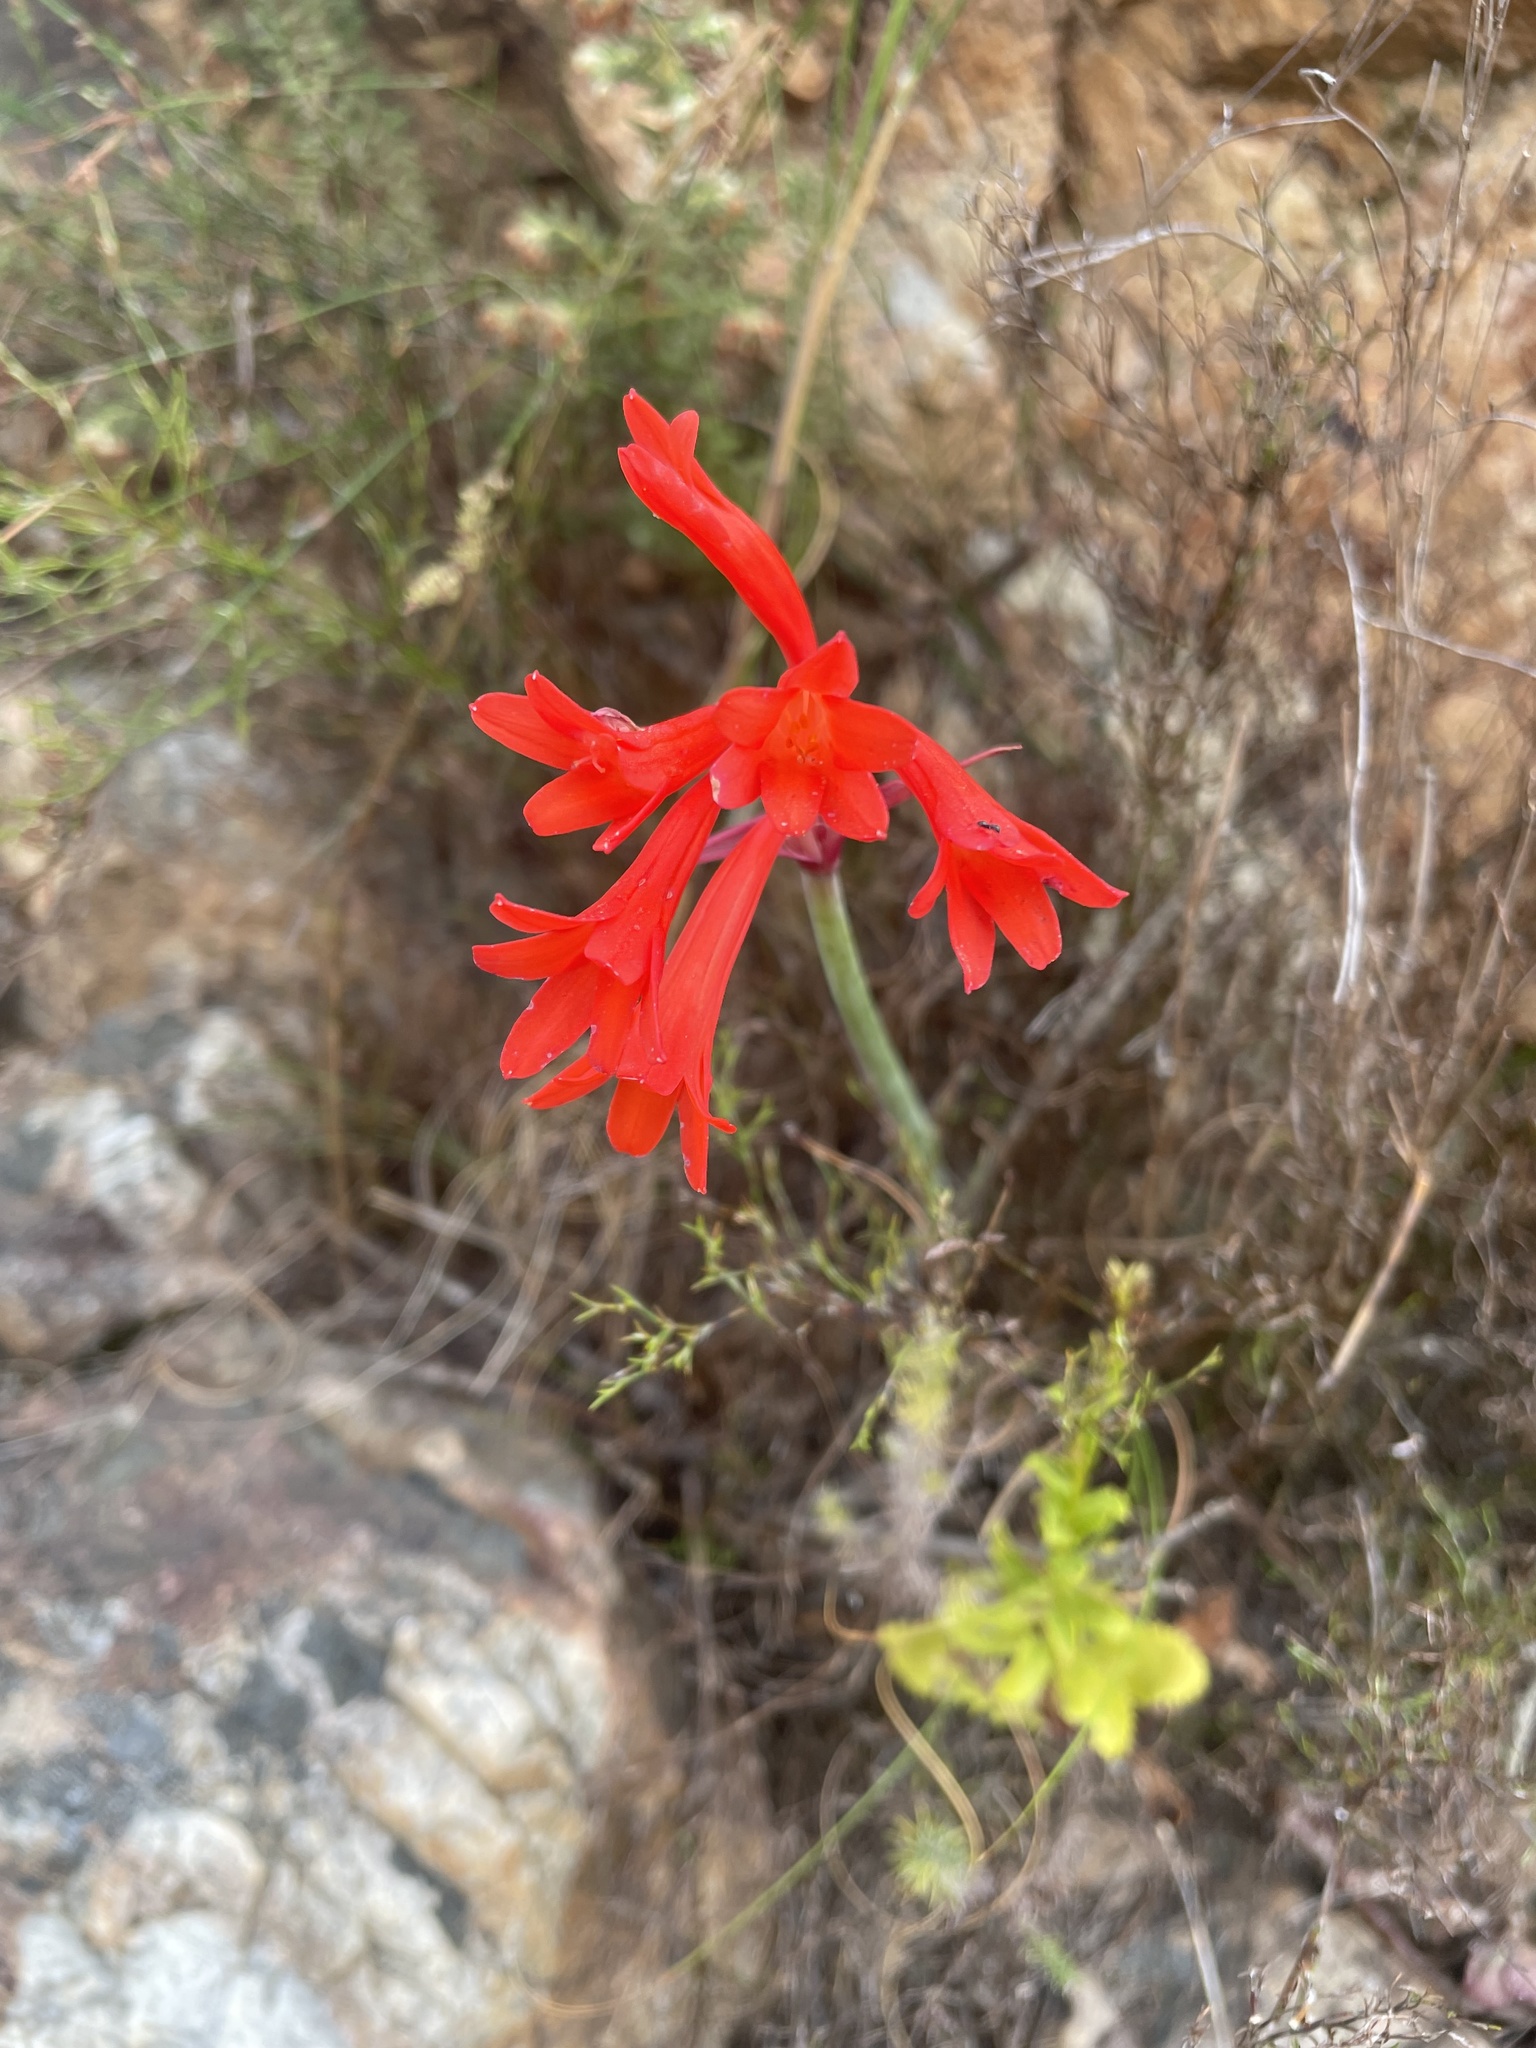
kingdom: Plantae
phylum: Tracheophyta
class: Liliopsida
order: Asparagales
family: Amaryllidaceae
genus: Cyrtanthus
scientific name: Cyrtanthus collinus
